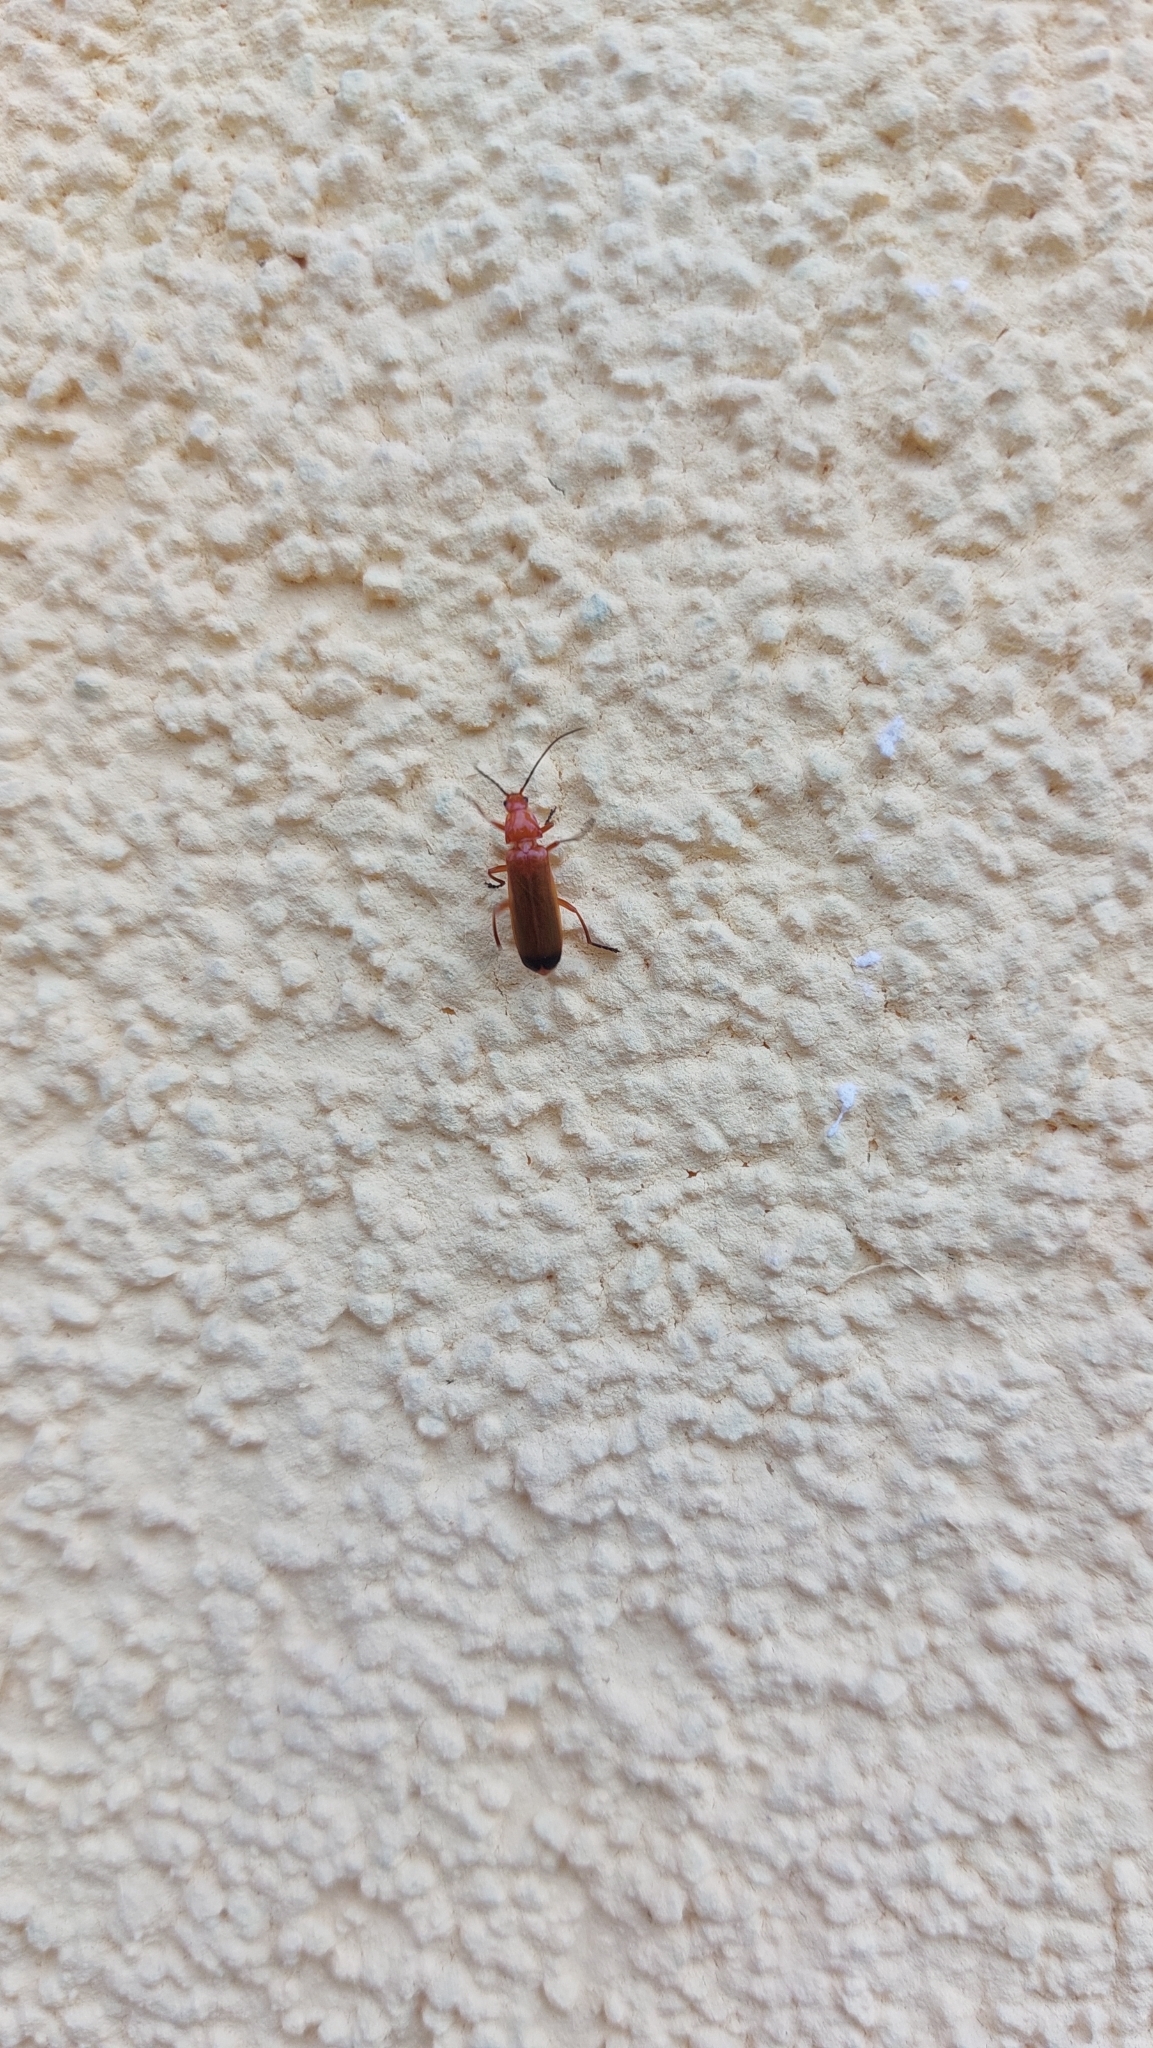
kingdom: Animalia
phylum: Arthropoda
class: Insecta
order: Coleoptera
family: Cantharidae
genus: Rhagonycha
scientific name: Rhagonycha fulva
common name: Common red soldier beetle
